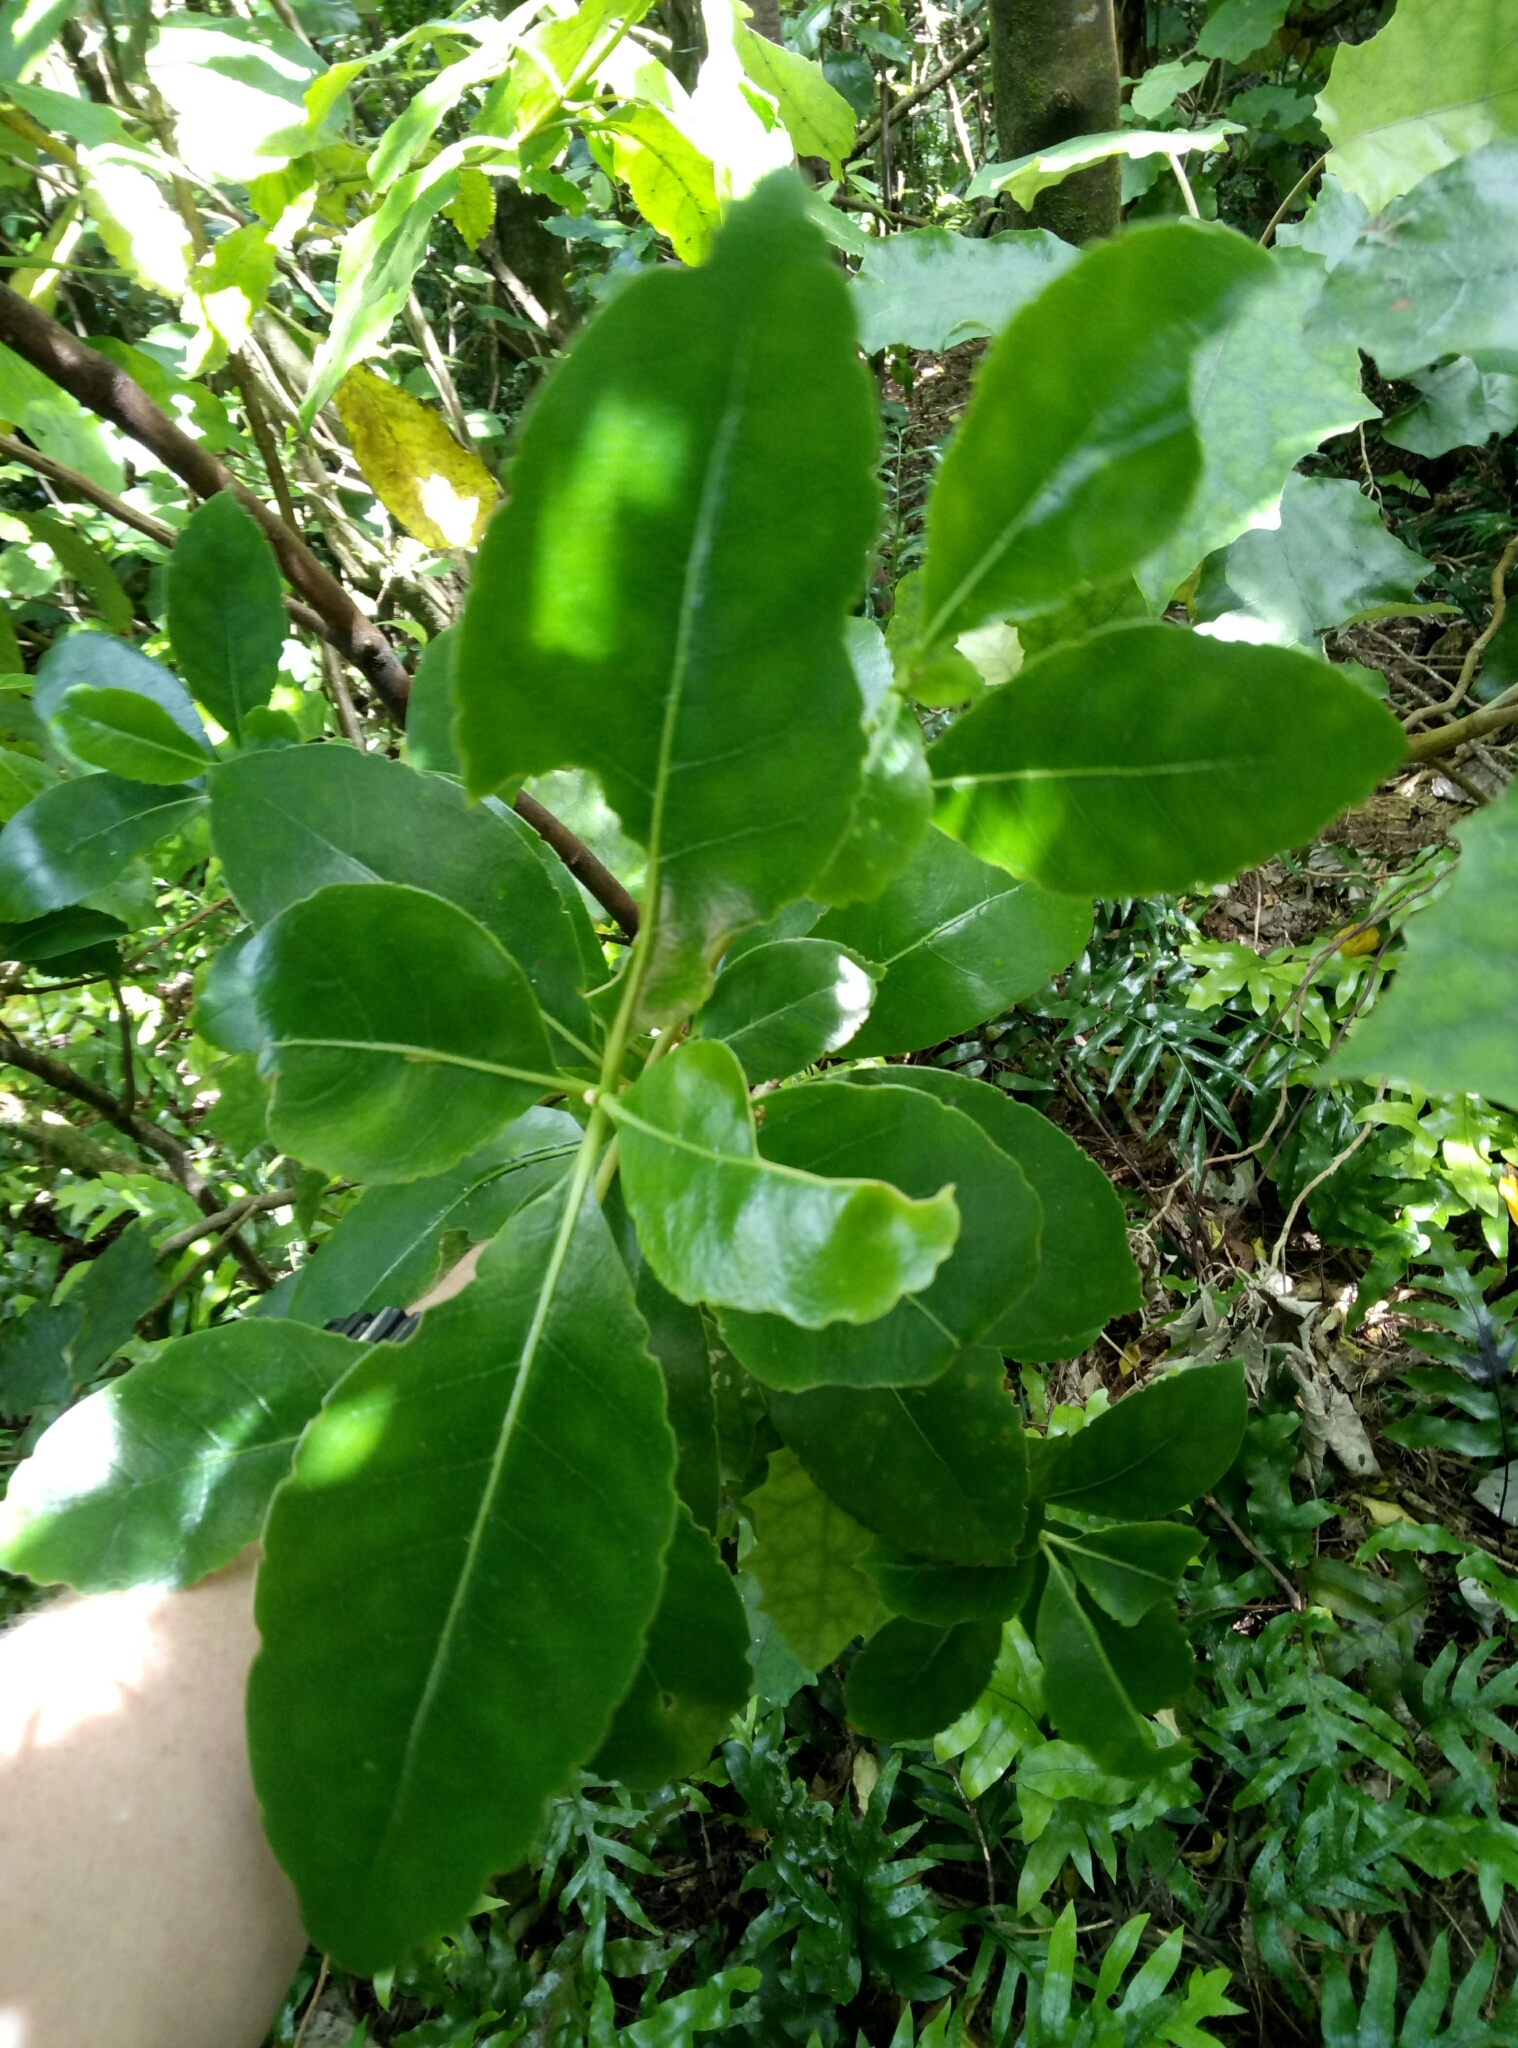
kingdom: Plantae
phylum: Tracheophyta
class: Magnoliopsida
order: Gentianales
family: Rubiaceae
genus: Coprosma
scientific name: Coprosma robusta
